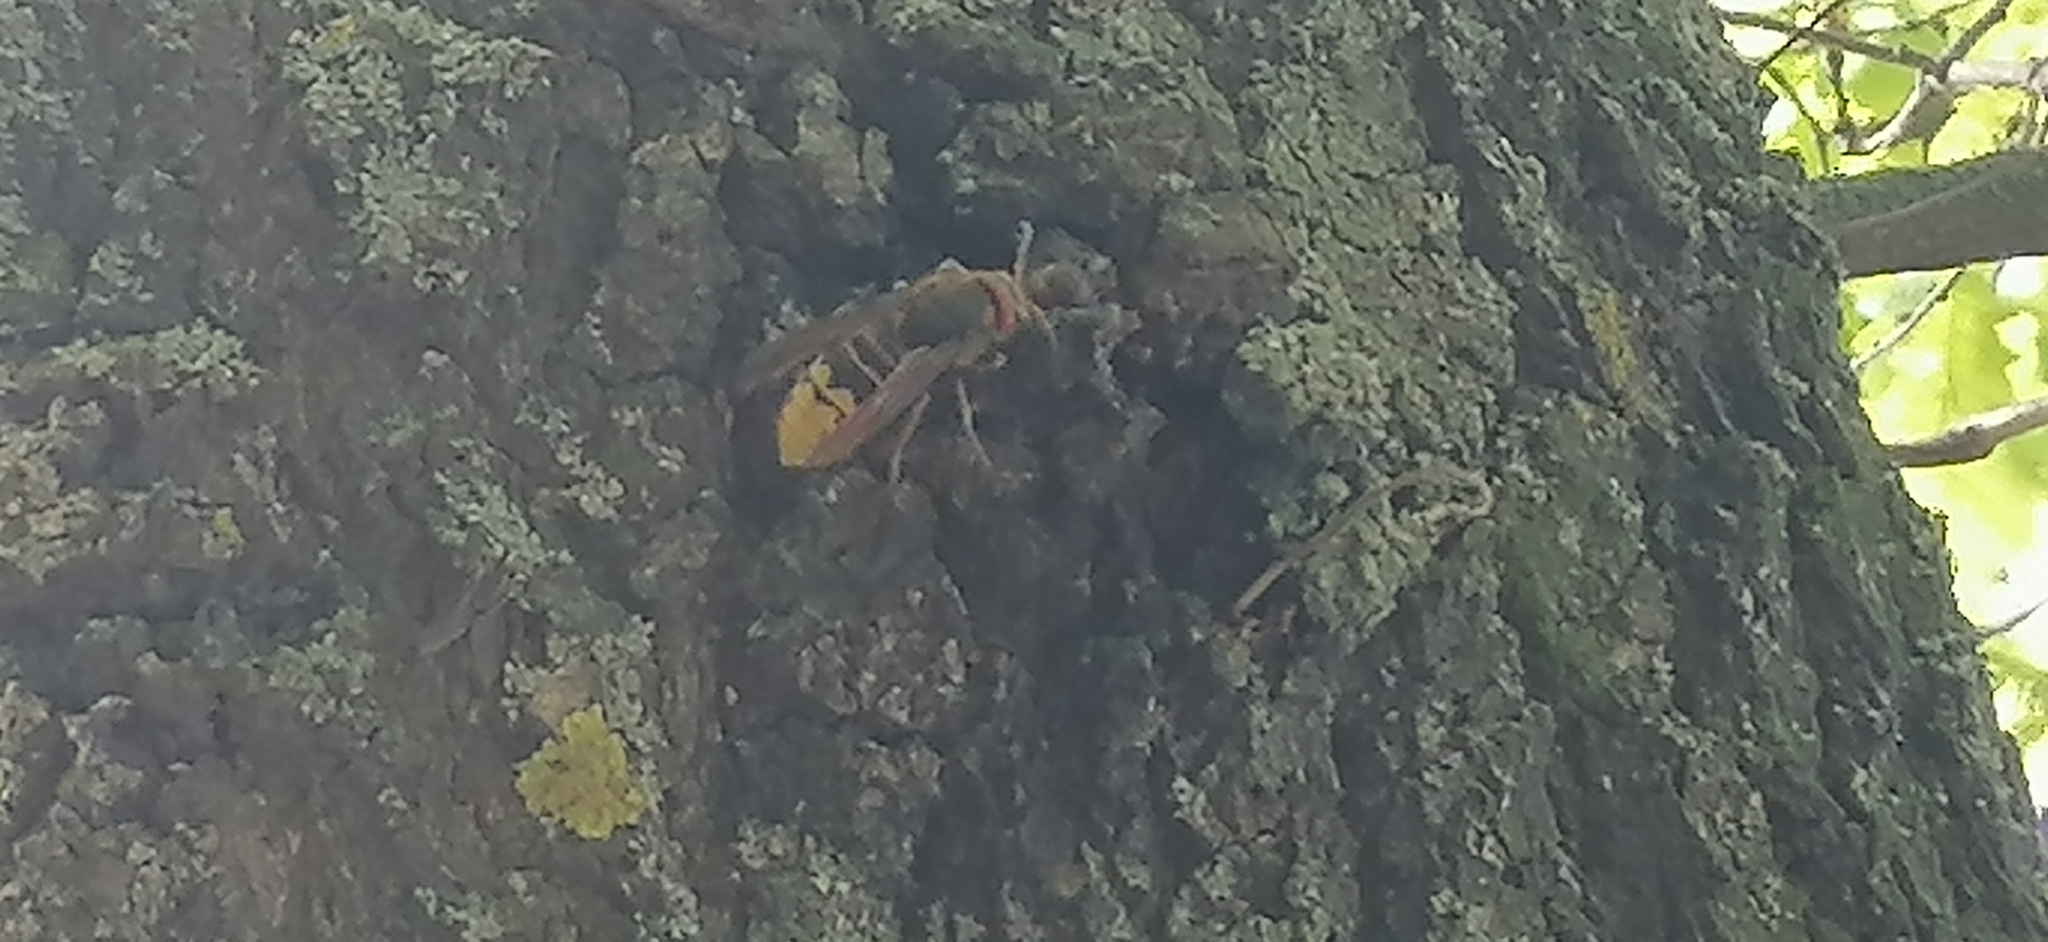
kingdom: Animalia
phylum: Arthropoda
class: Insecta
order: Hymenoptera
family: Vespidae
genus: Vespa
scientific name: Vespa crabro
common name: Hornet
